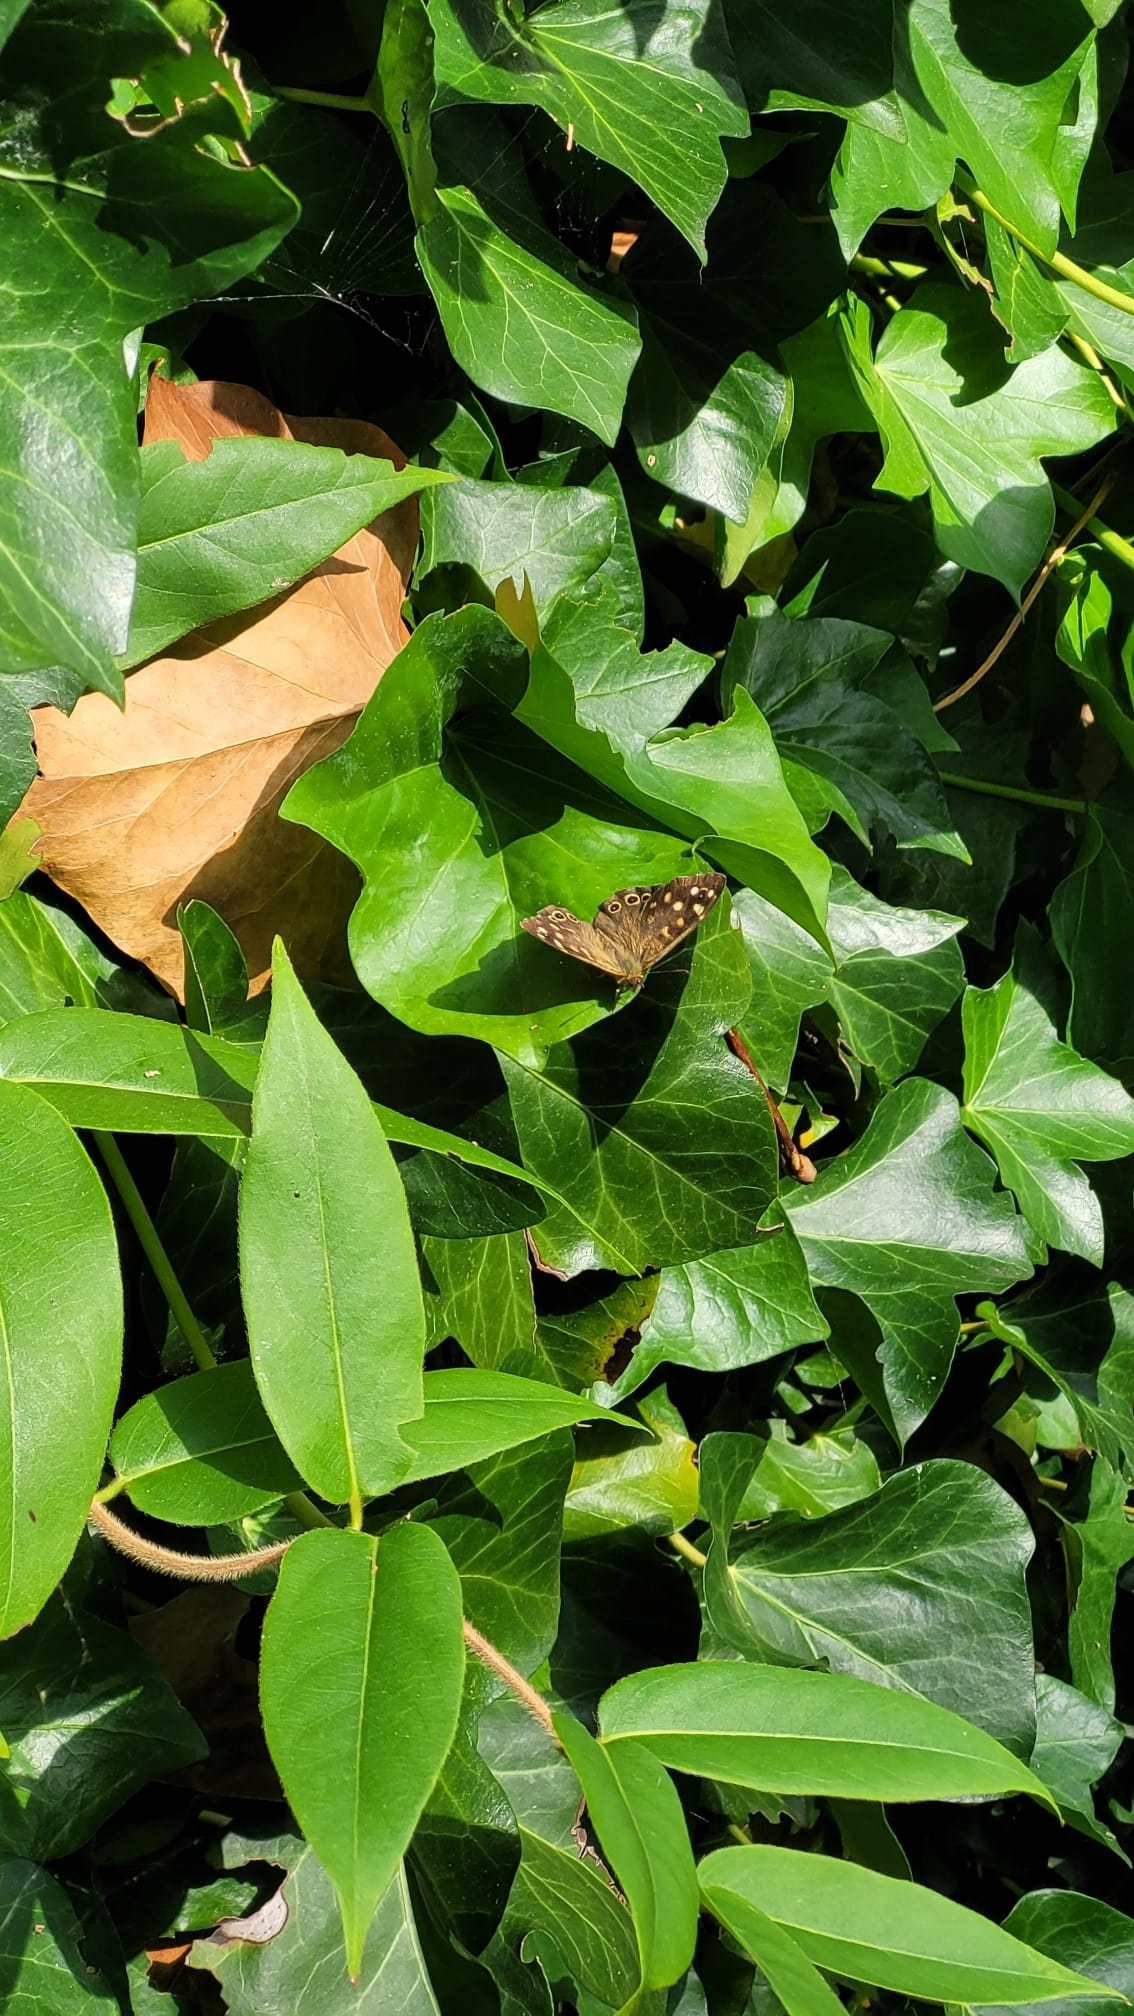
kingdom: Animalia
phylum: Arthropoda
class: Insecta
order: Lepidoptera
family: Nymphalidae
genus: Pararge
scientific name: Pararge aegeria
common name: Speckled wood
